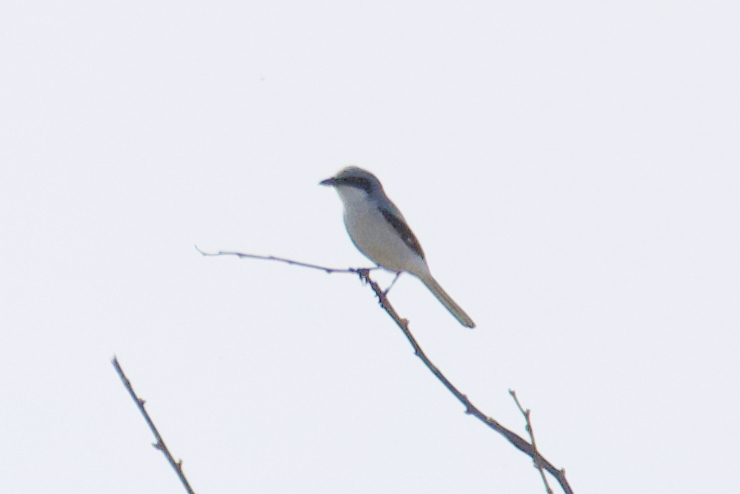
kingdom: Animalia
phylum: Chordata
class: Aves
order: Passeriformes
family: Laniidae
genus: Lanius
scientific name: Lanius ludovicianus
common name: Loggerhead shrike
